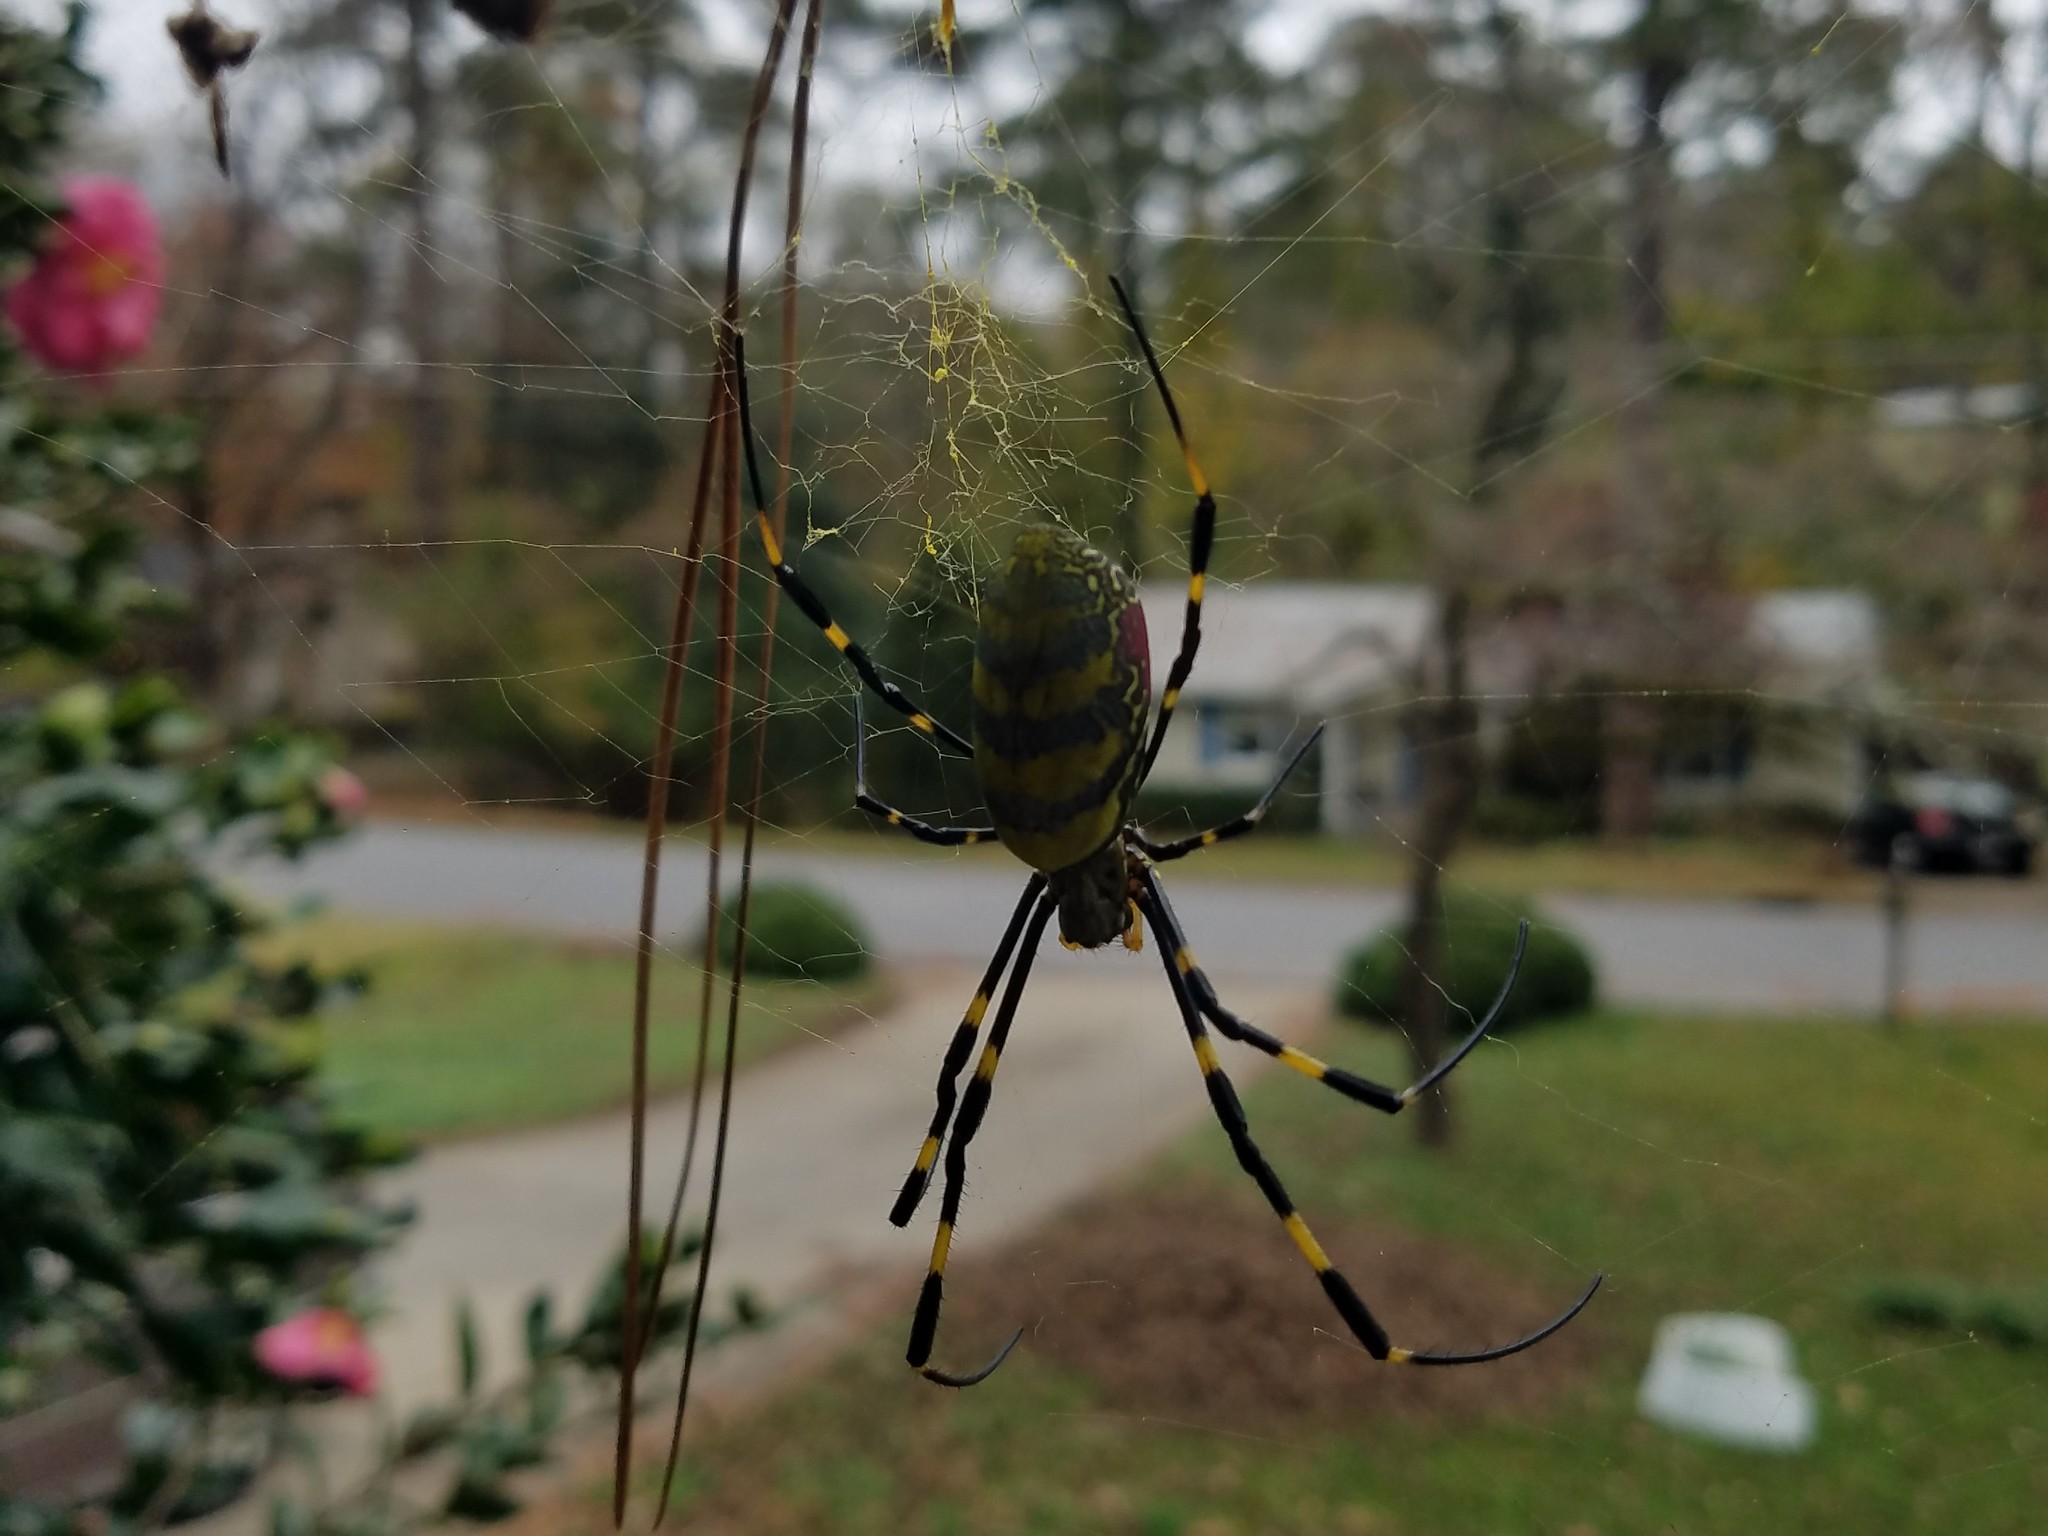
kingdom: Animalia
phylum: Arthropoda
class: Arachnida
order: Araneae
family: Araneidae
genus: Trichonephila
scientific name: Trichonephila clavata
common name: Jorō spider
